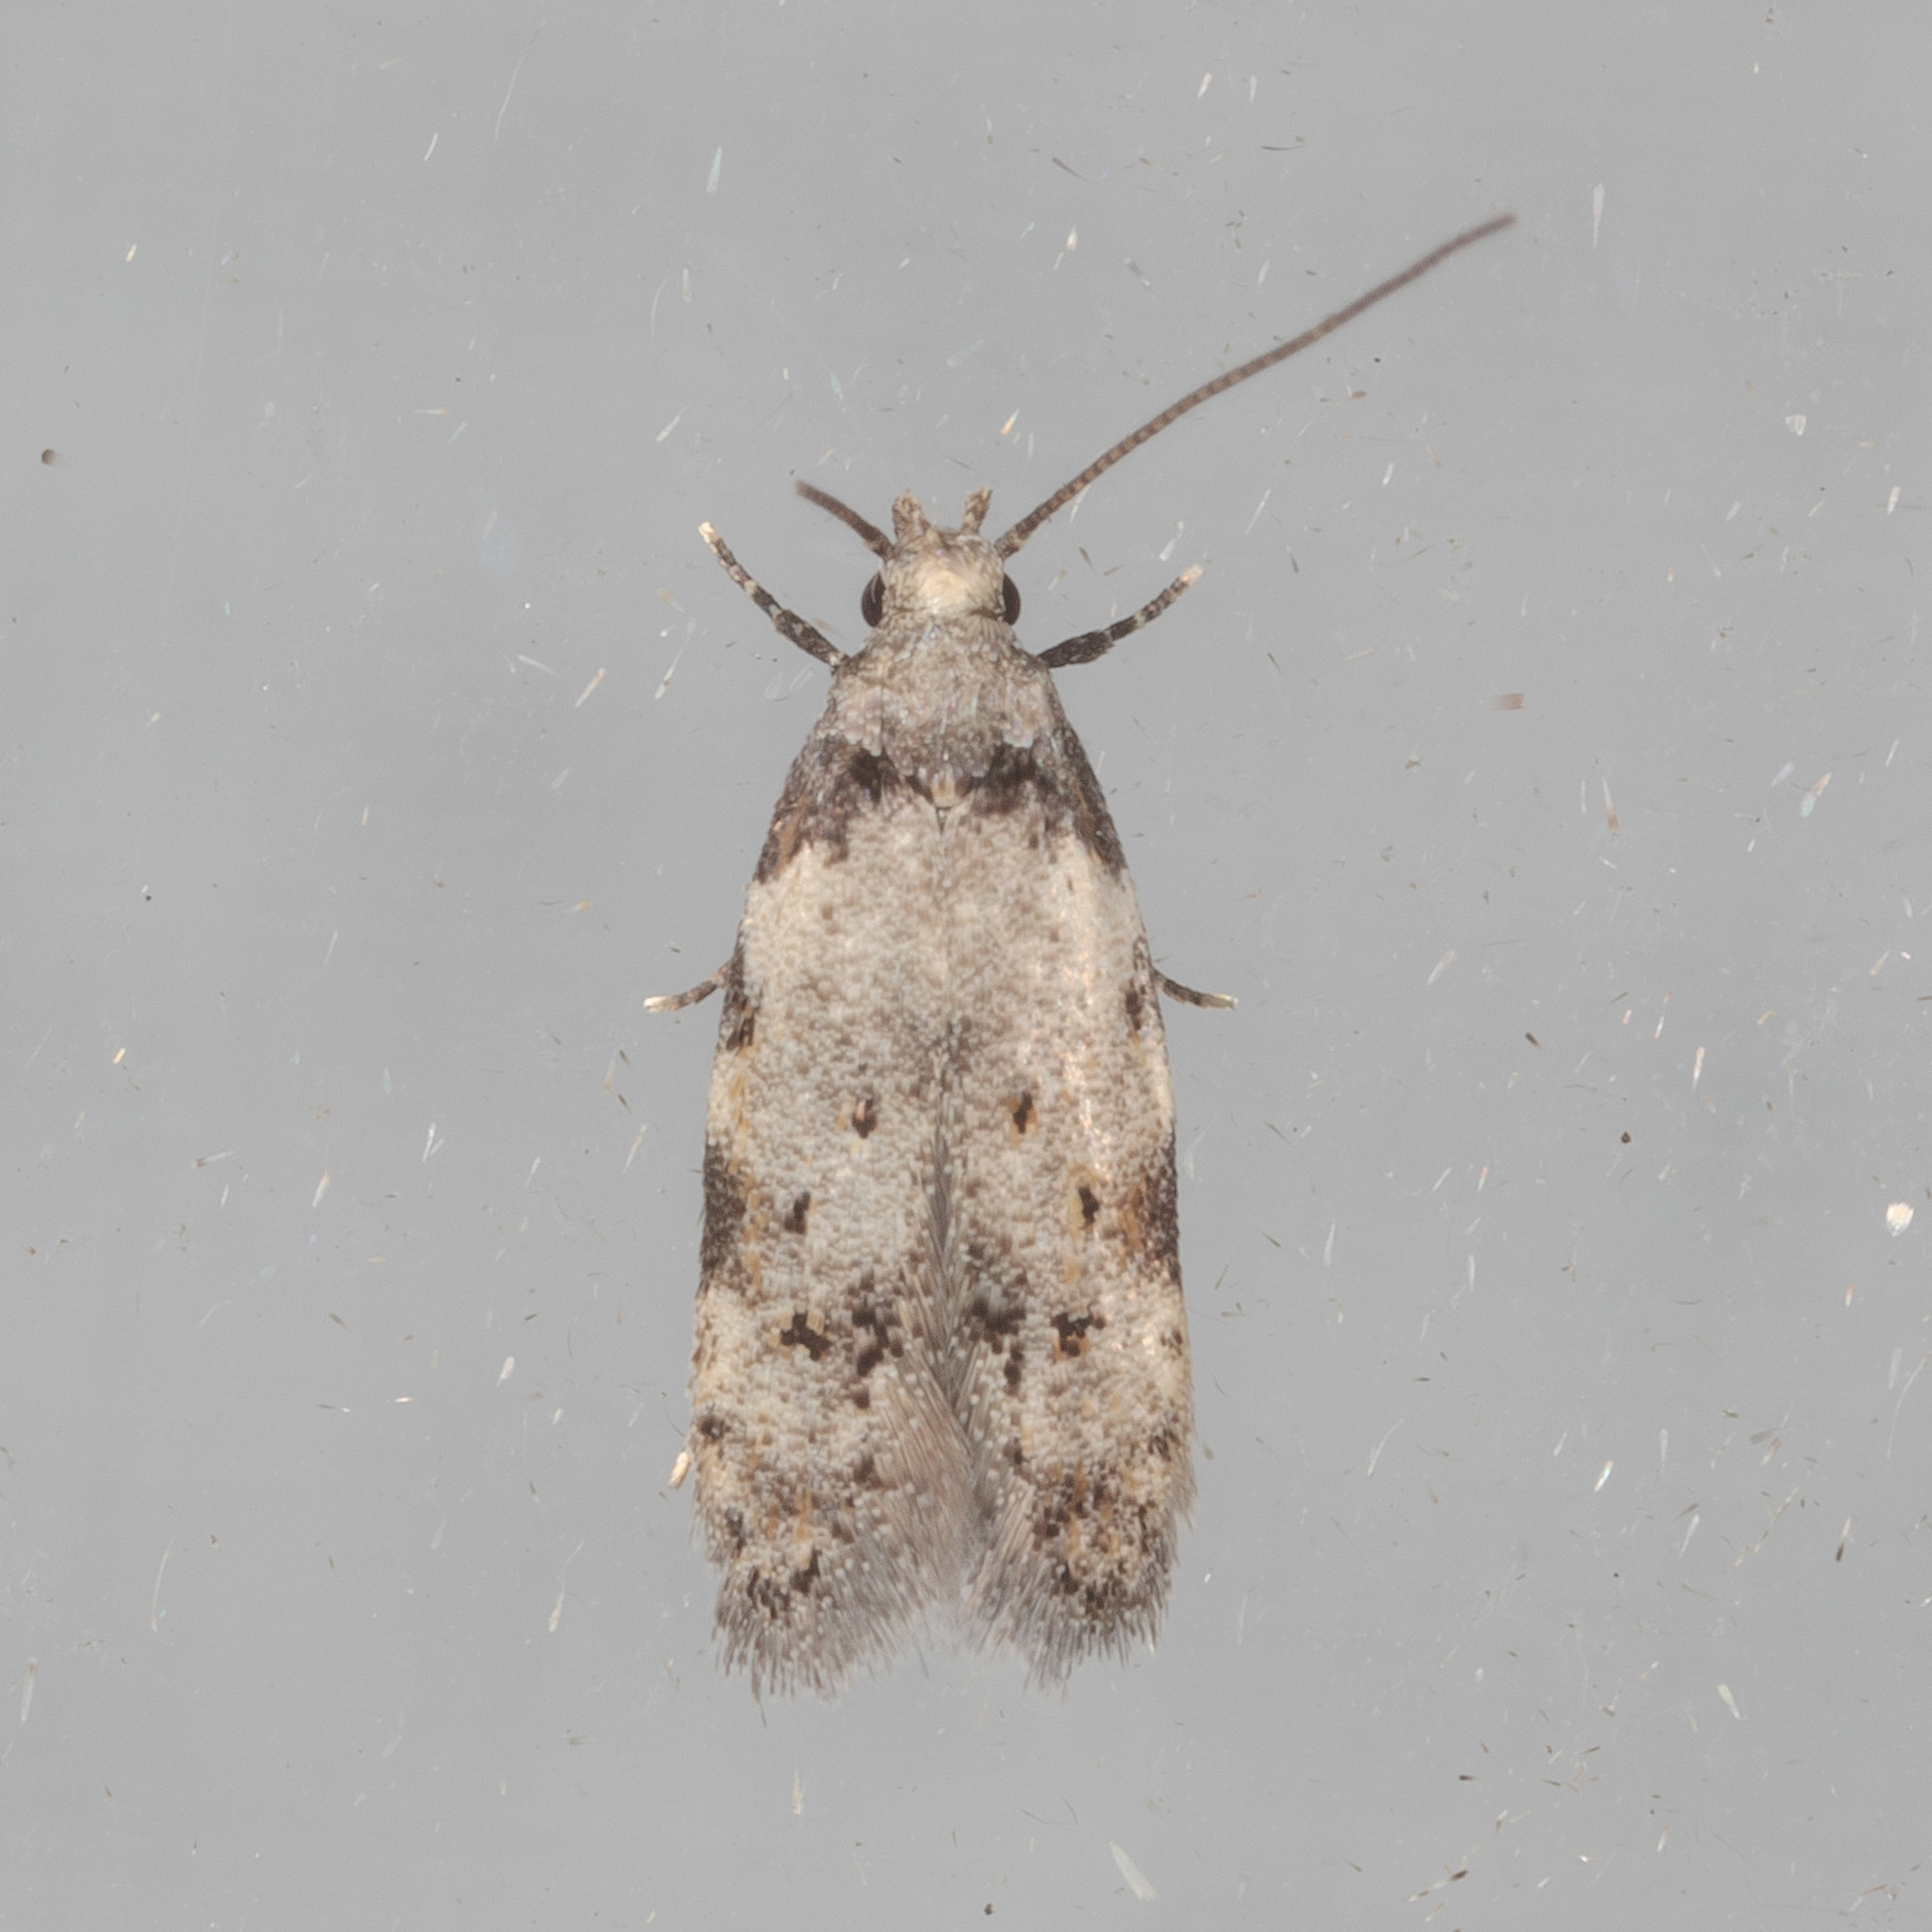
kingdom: Animalia
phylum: Arthropoda
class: Insecta
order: Lepidoptera
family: Autostichidae
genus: Taygete
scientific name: Taygete attributella
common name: Triangle-marked twirler moth
